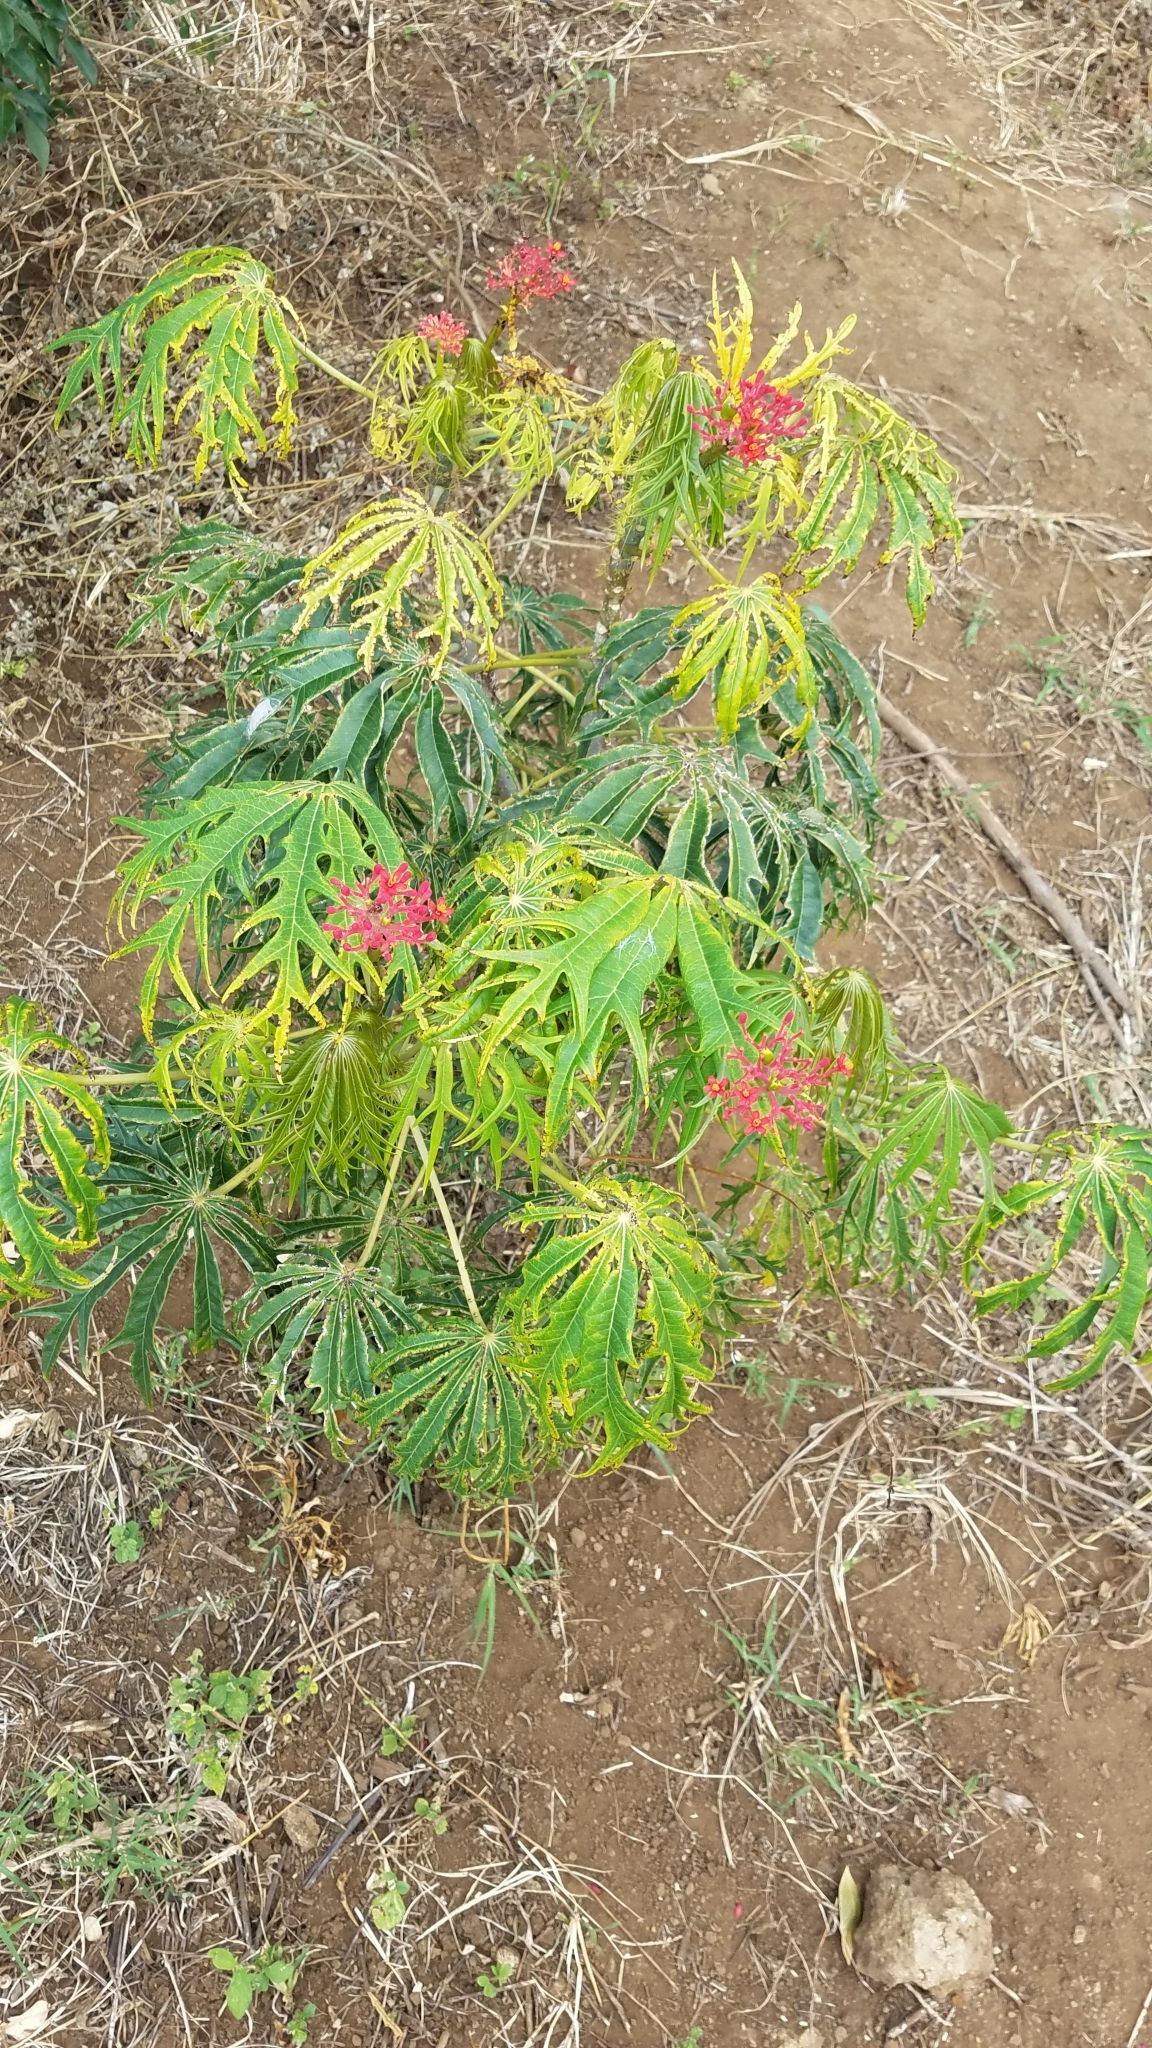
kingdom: Plantae
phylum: Tracheophyta
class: Magnoliopsida
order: Malpighiales
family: Euphorbiaceae
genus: Jatropha
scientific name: Jatropha multifida
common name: Coralbush
